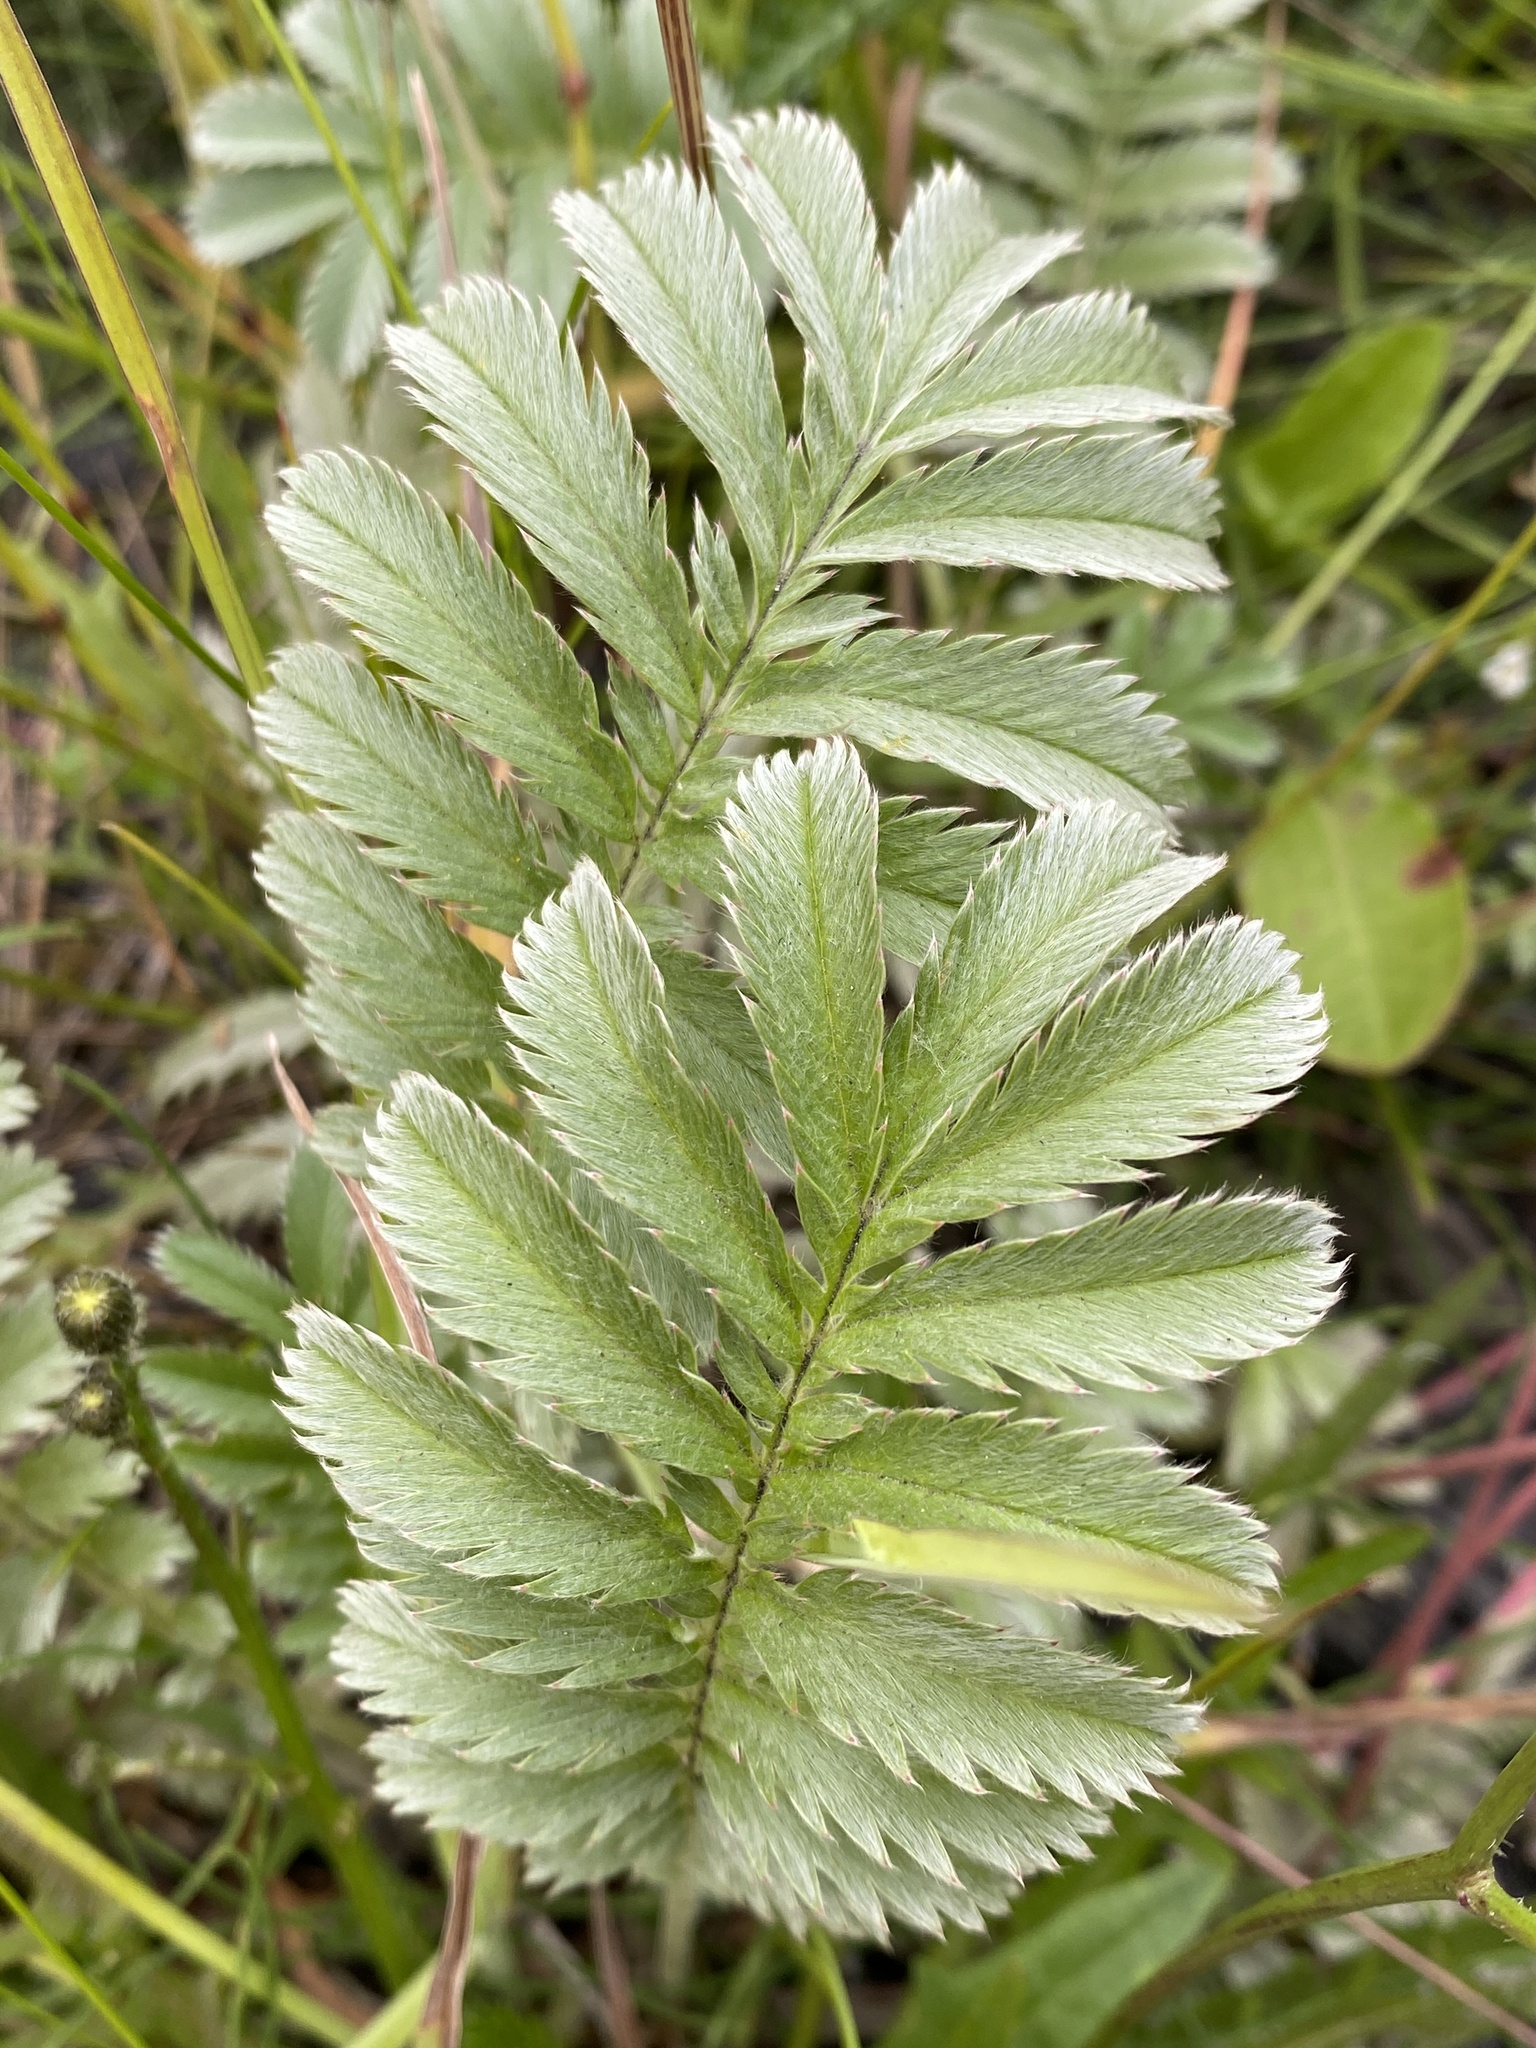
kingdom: Plantae
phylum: Tracheophyta
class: Magnoliopsida
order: Rosales
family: Rosaceae
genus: Argentina
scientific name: Argentina anserina
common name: Common silverweed
